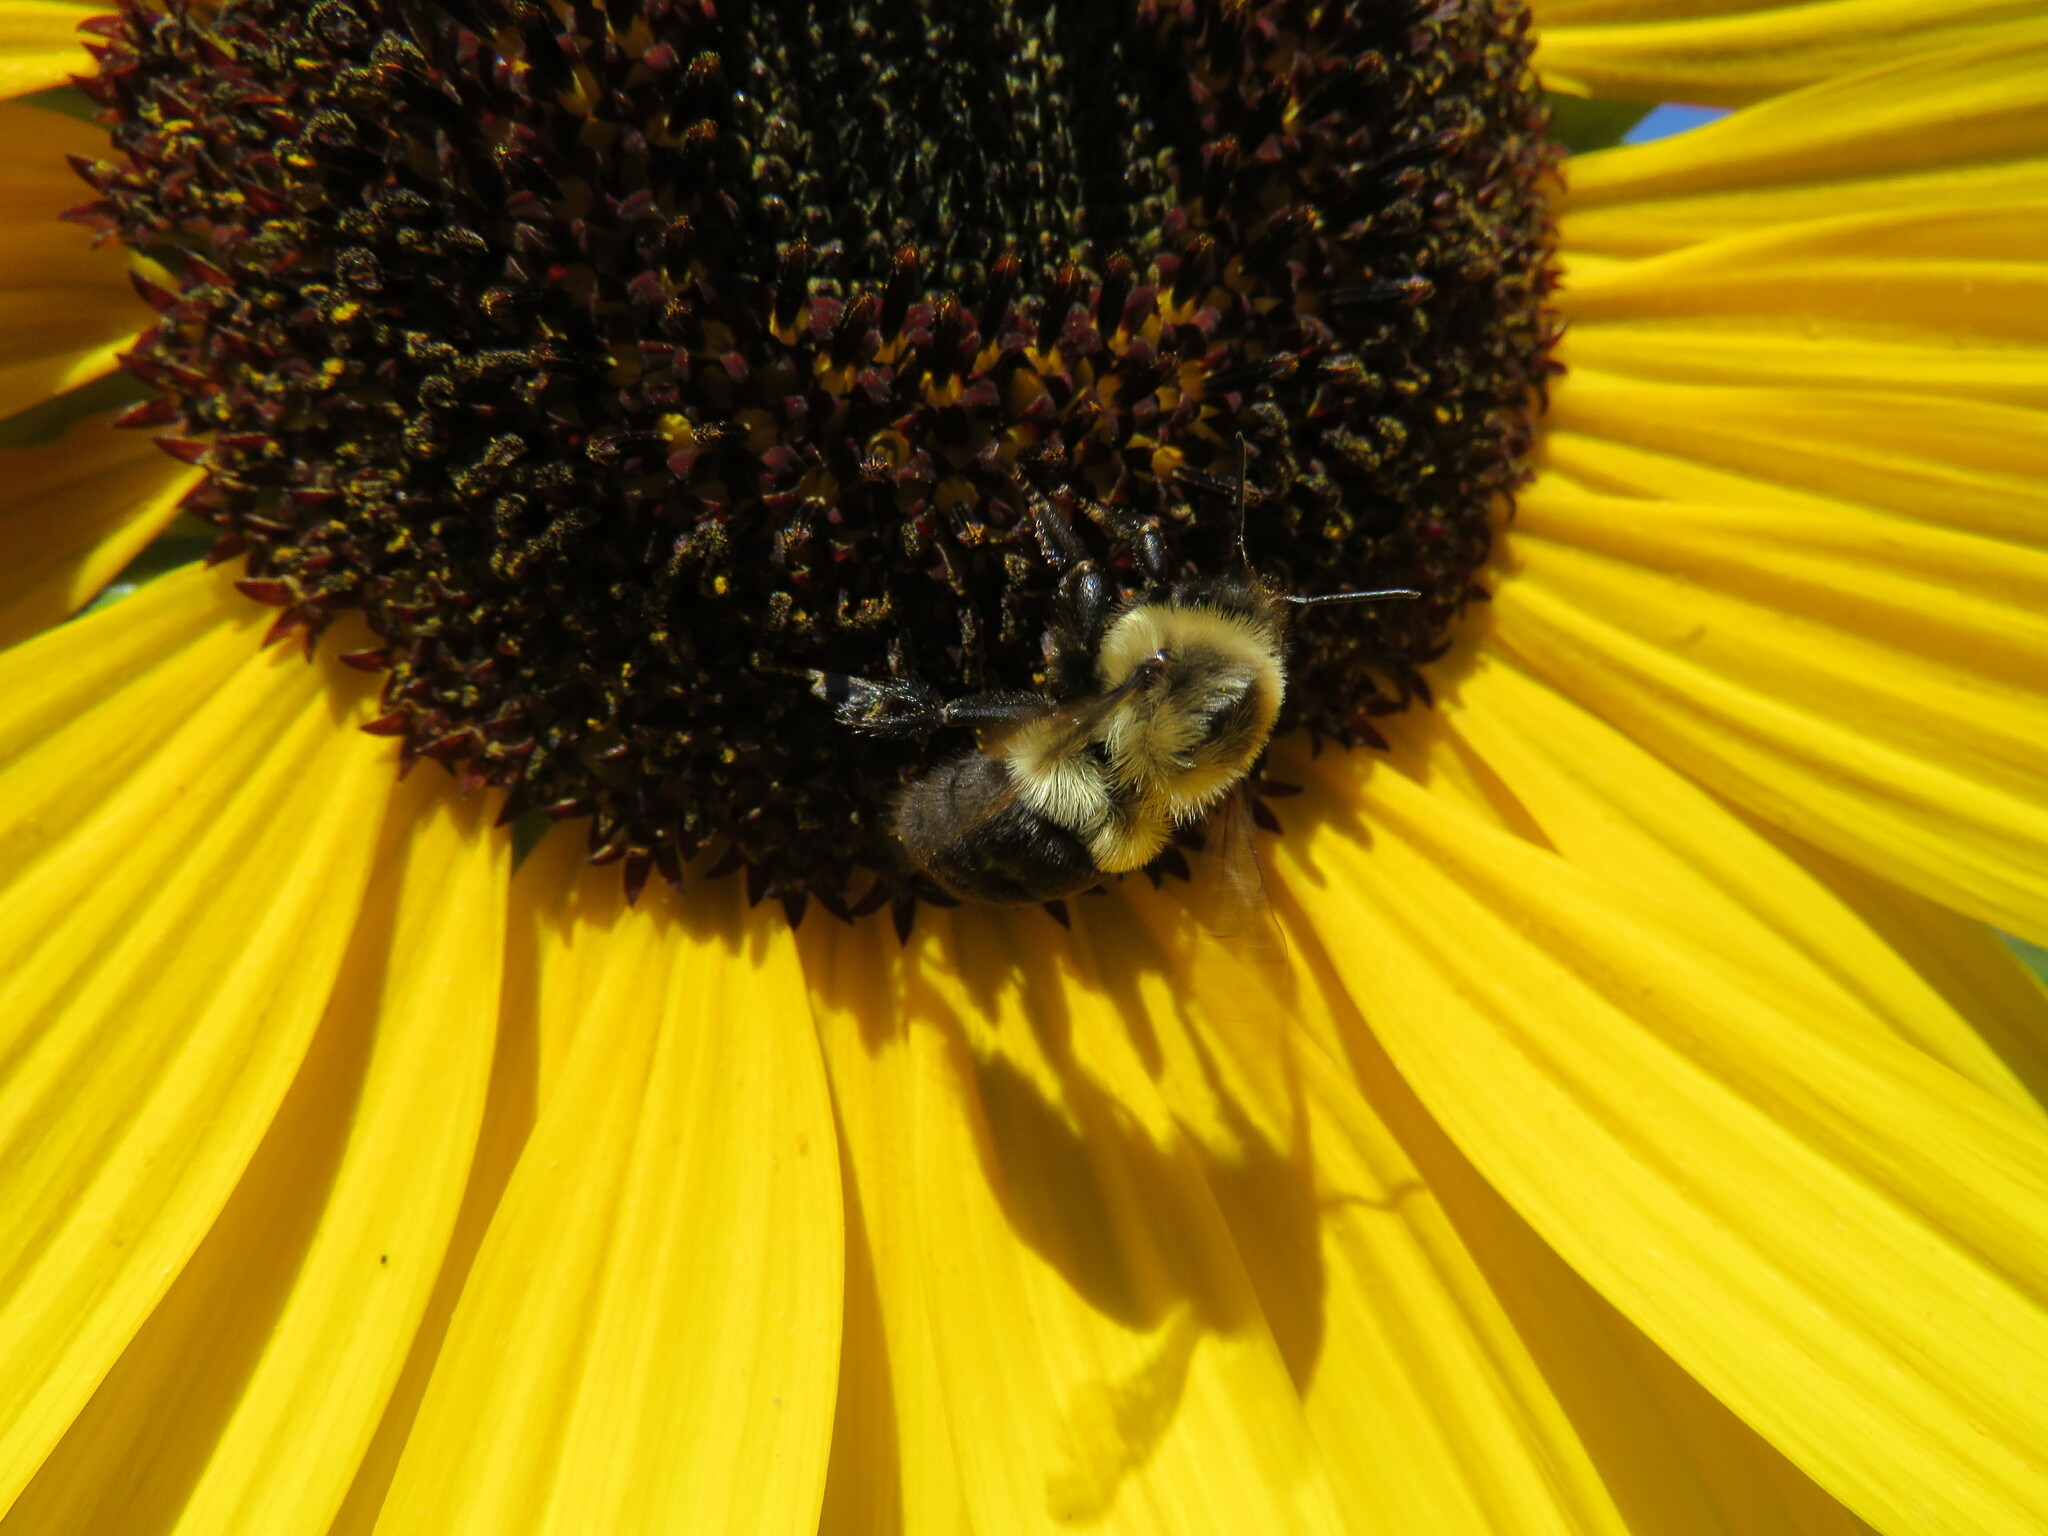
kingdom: Animalia
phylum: Arthropoda
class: Insecta
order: Hymenoptera
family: Apidae
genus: Bombus
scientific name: Bombus impatiens
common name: Common eastern bumble bee
